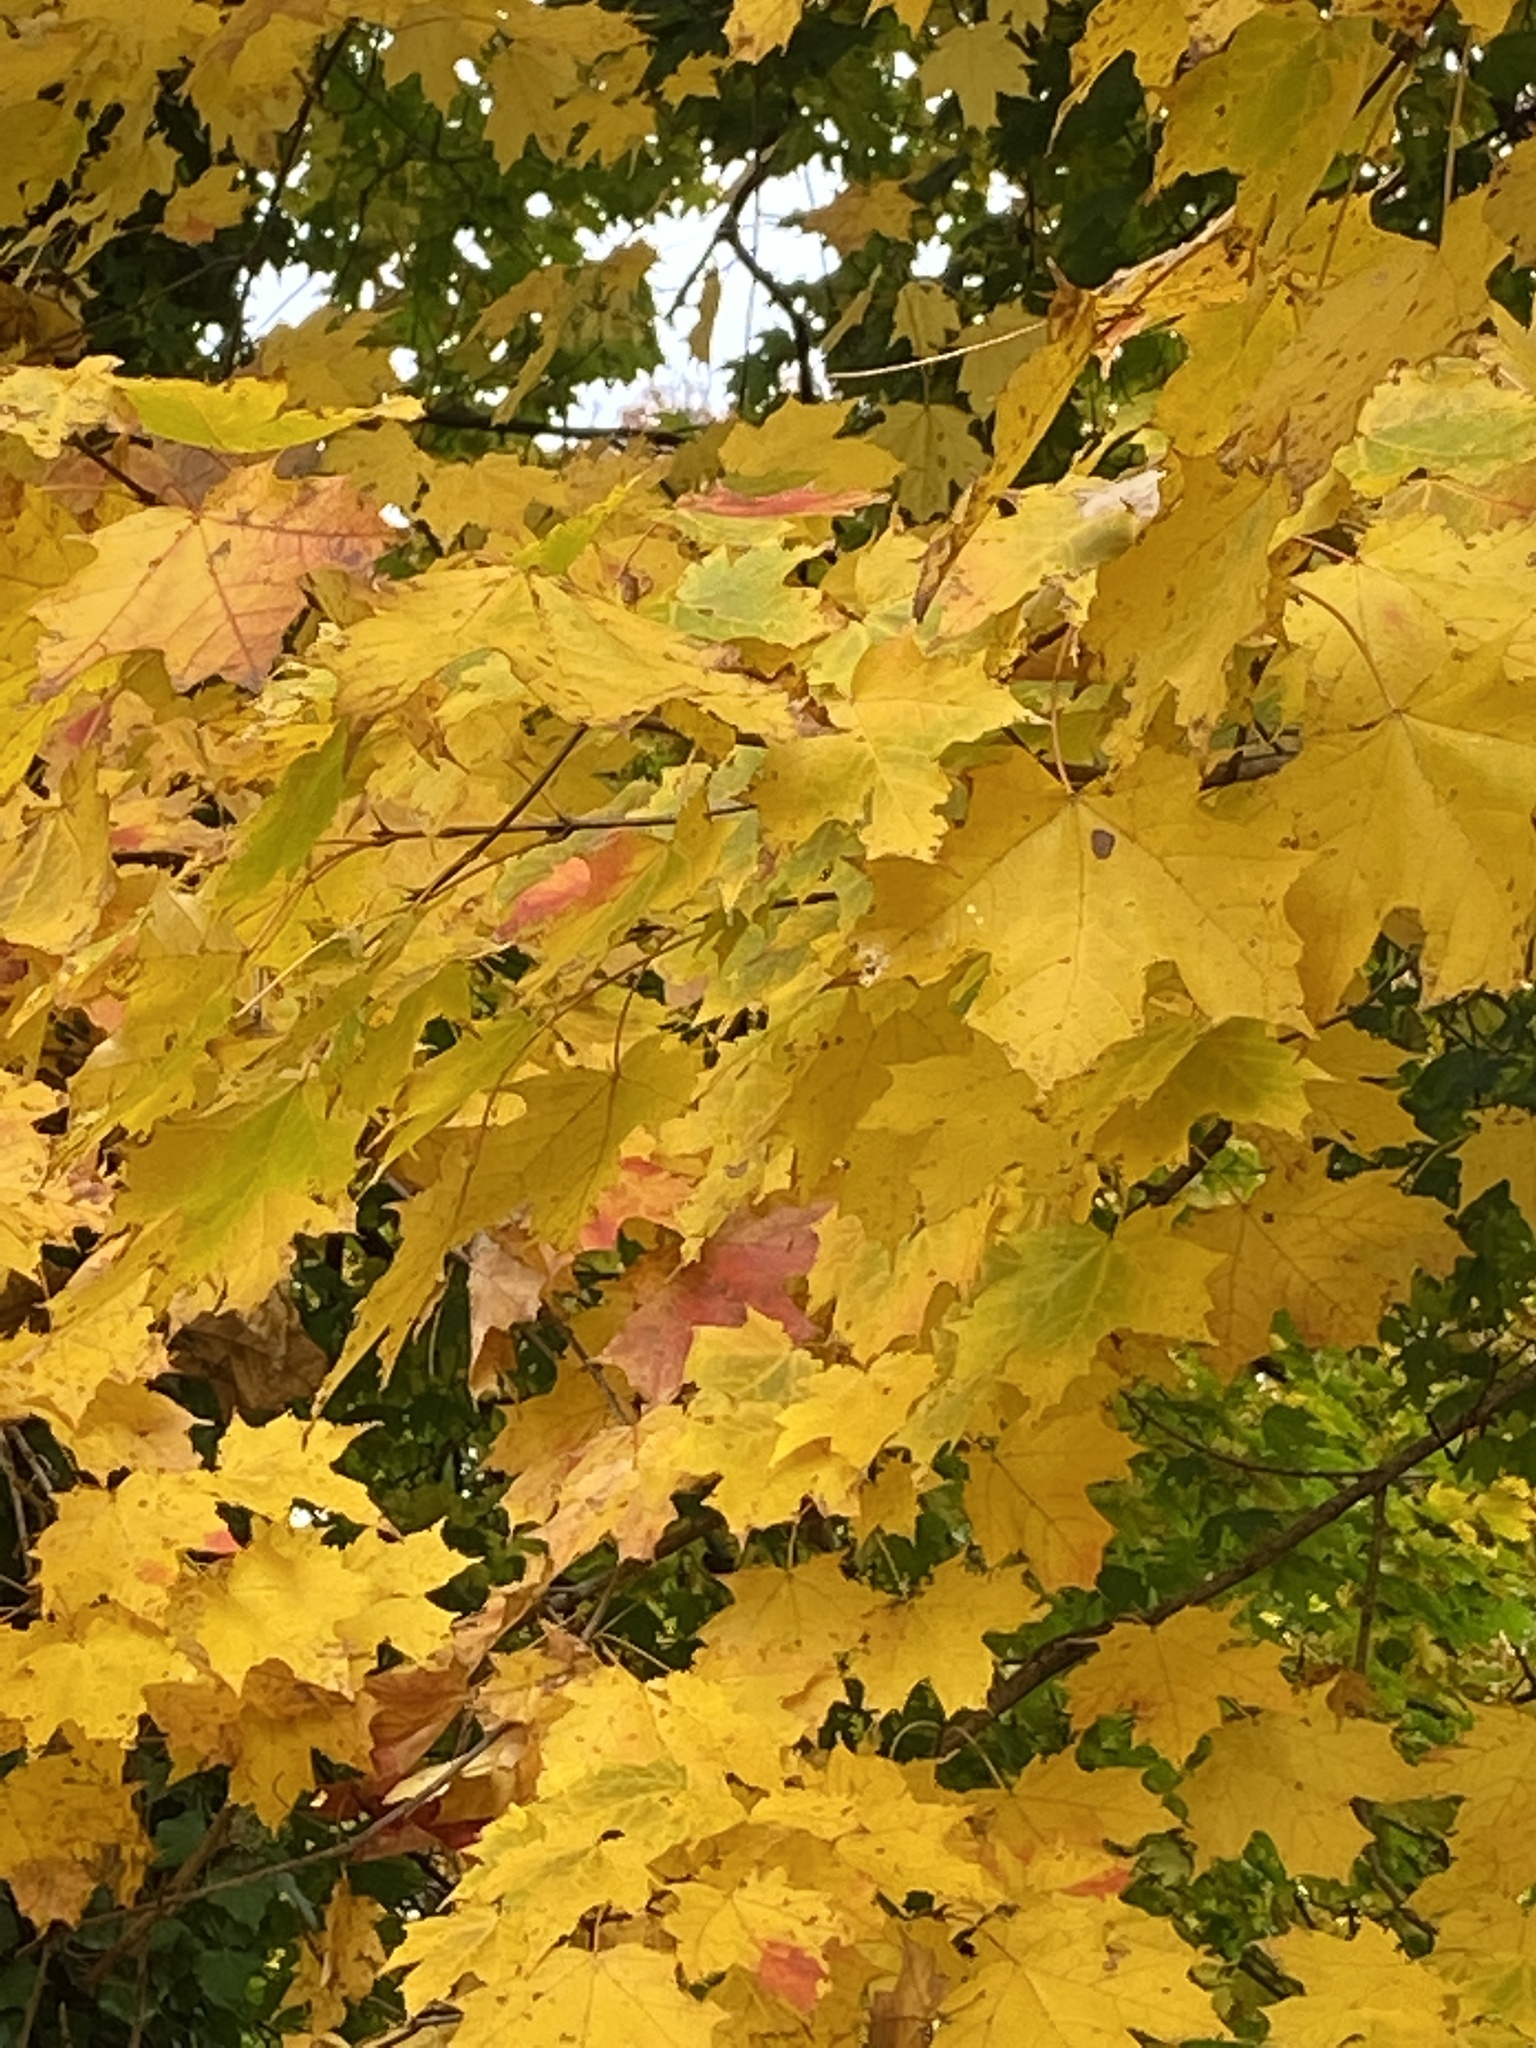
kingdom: Plantae
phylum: Tracheophyta
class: Magnoliopsida
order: Sapindales
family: Sapindaceae
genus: Acer
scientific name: Acer saccharum
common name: Sugar maple
